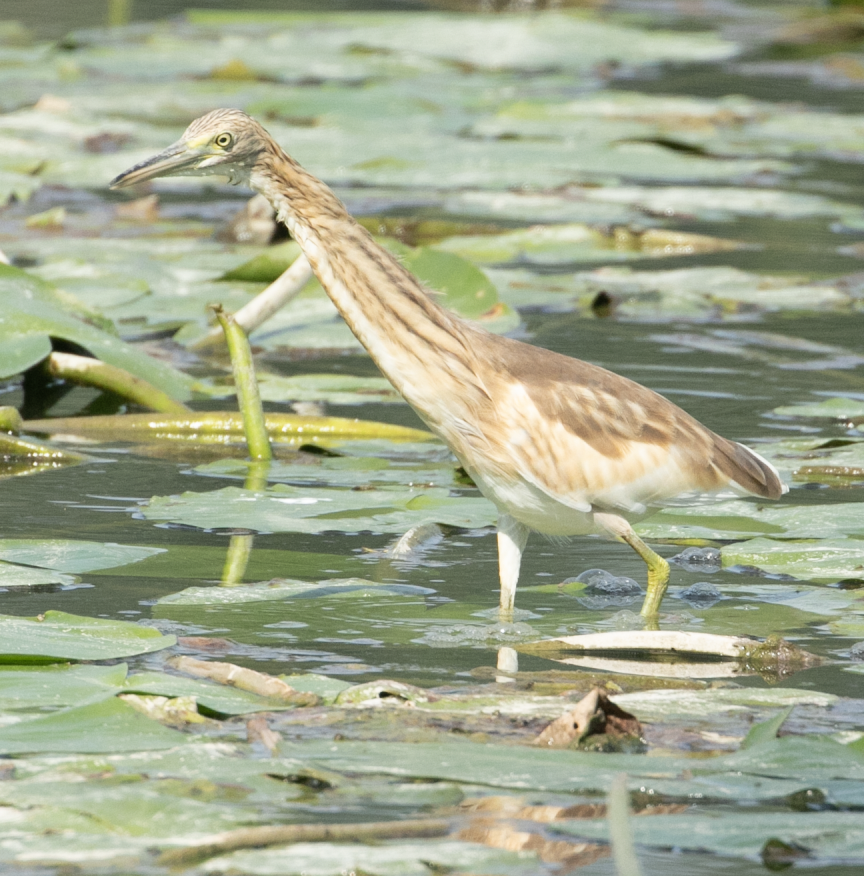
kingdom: Animalia
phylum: Chordata
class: Aves
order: Pelecaniformes
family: Ardeidae
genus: Ardeola
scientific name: Ardeola ralloides
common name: Squacco heron
